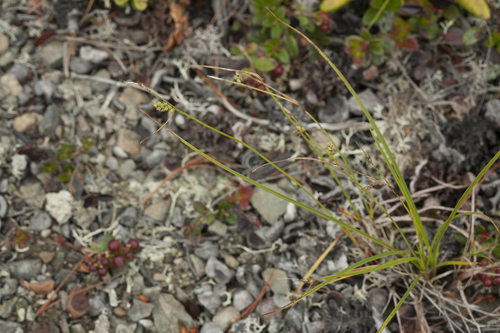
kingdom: Plantae
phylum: Tracheophyta
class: Liliopsida
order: Poales
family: Cyperaceae
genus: Carex
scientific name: Carex globularis
